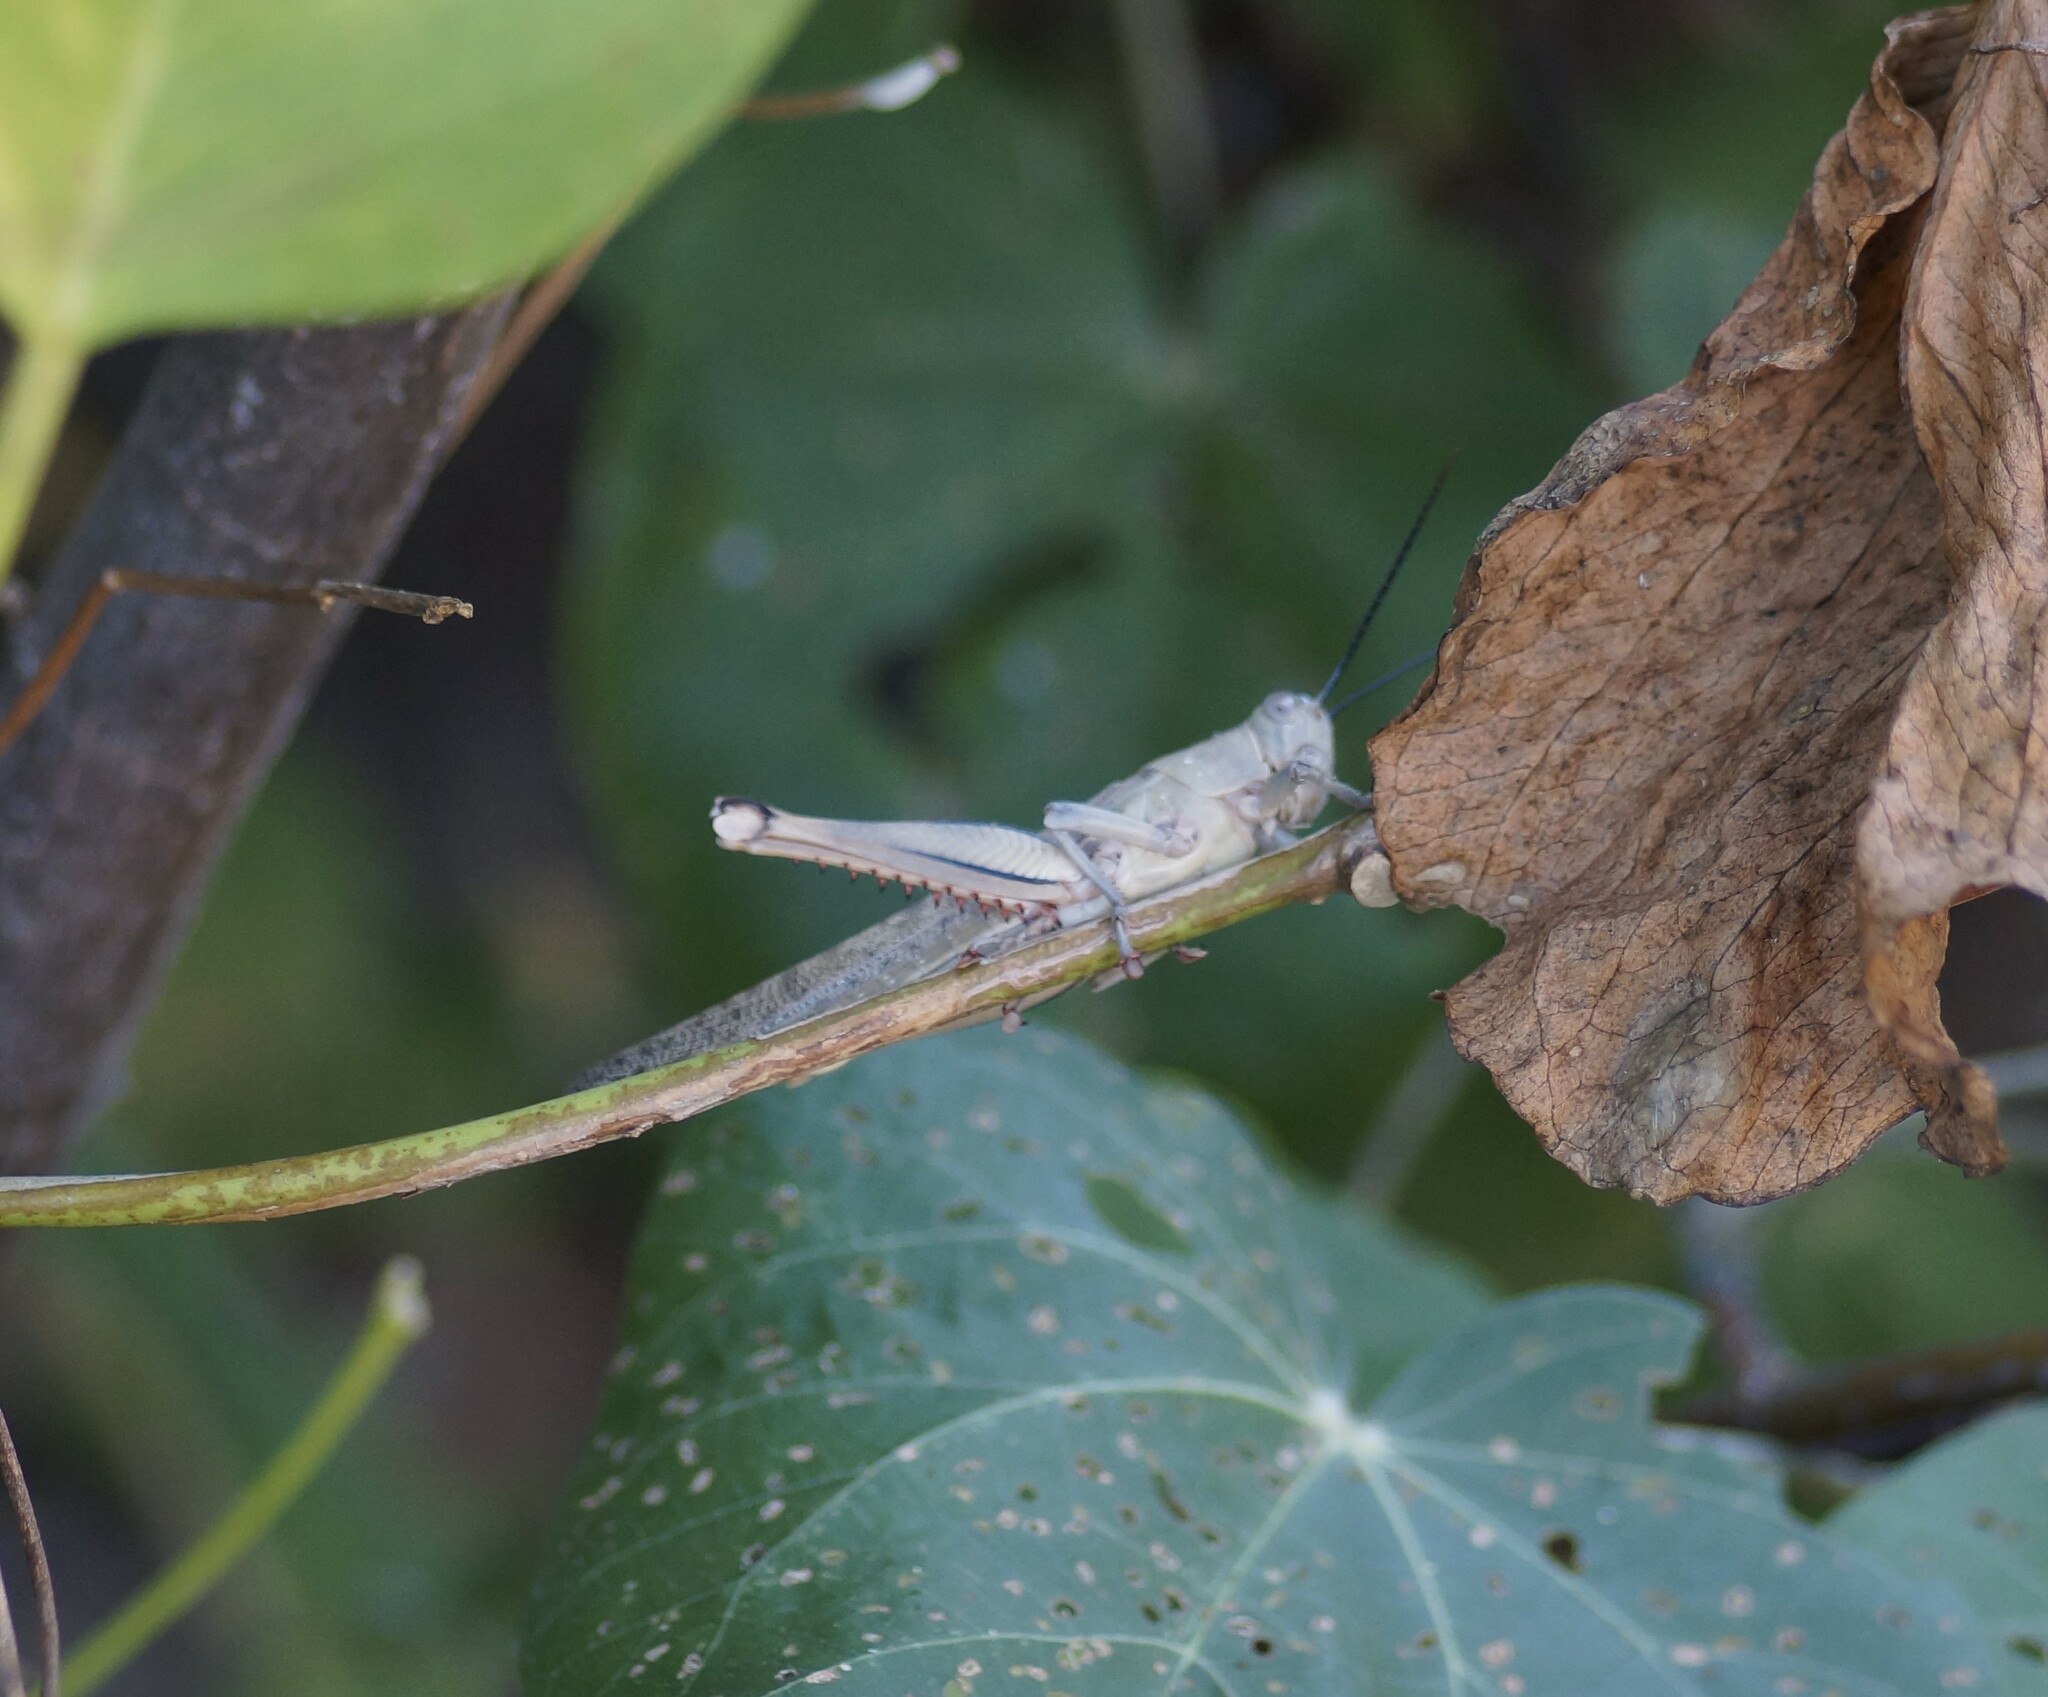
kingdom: Animalia
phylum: Arthropoda
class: Insecta
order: Orthoptera
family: Acrididae
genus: Valanga
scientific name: Valanga irregularis
